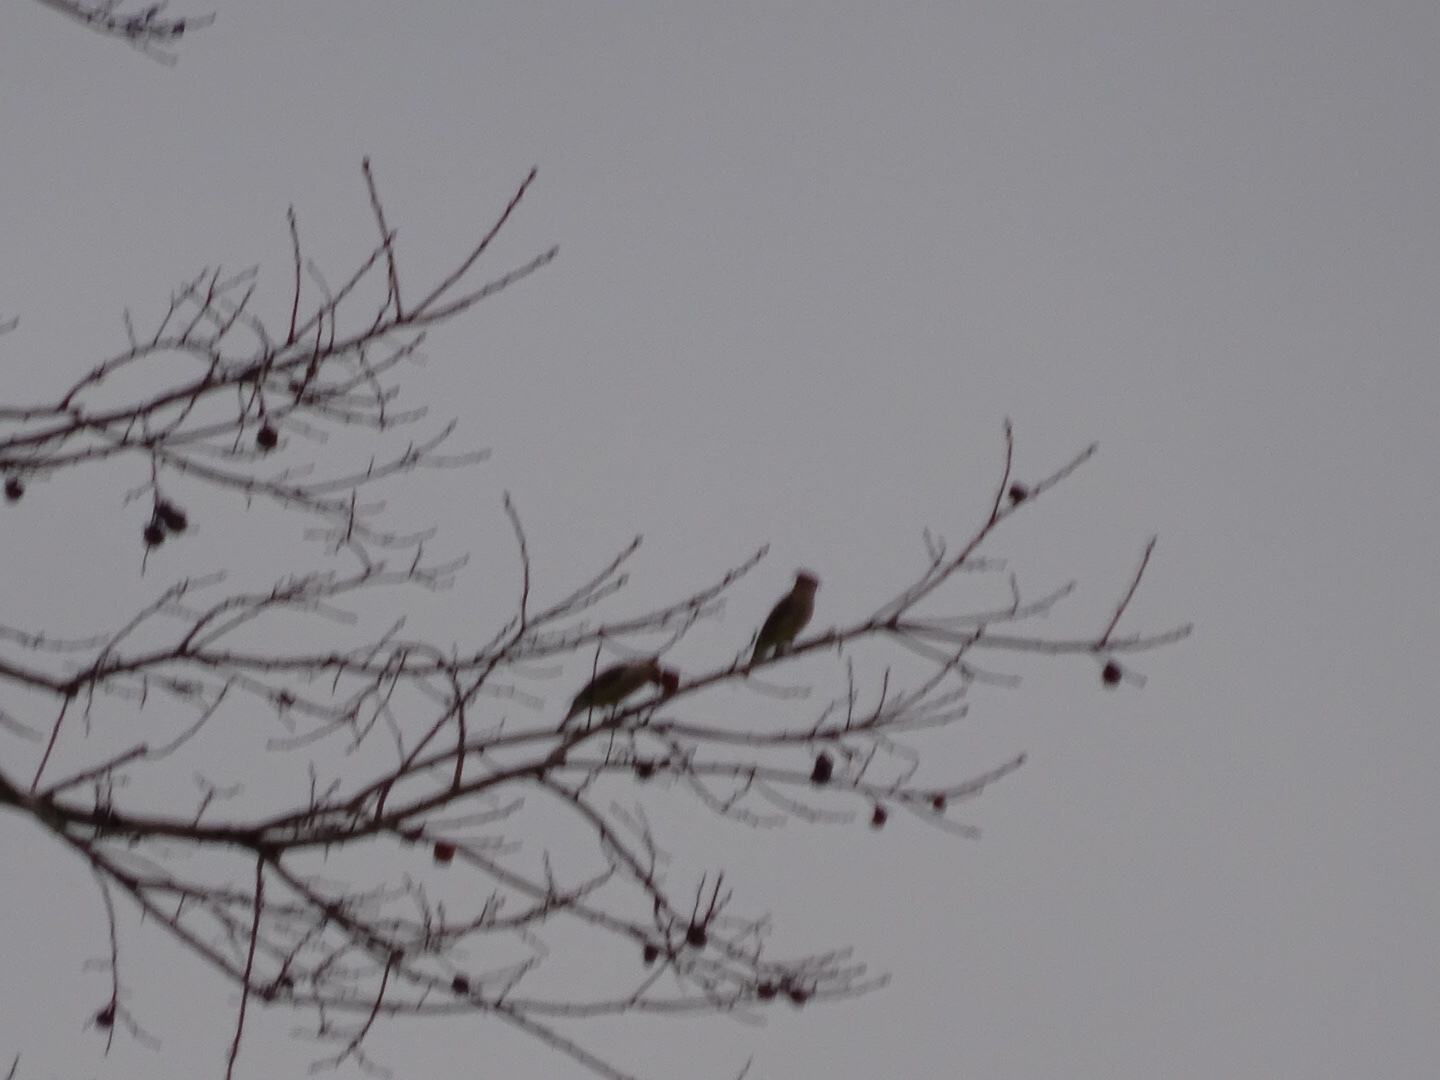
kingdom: Animalia
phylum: Chordata
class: Aves
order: Passeriformes
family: Bombycillidae
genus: Bombycilla
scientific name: Bombycilla cedrorum
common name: Cedar waxwing
